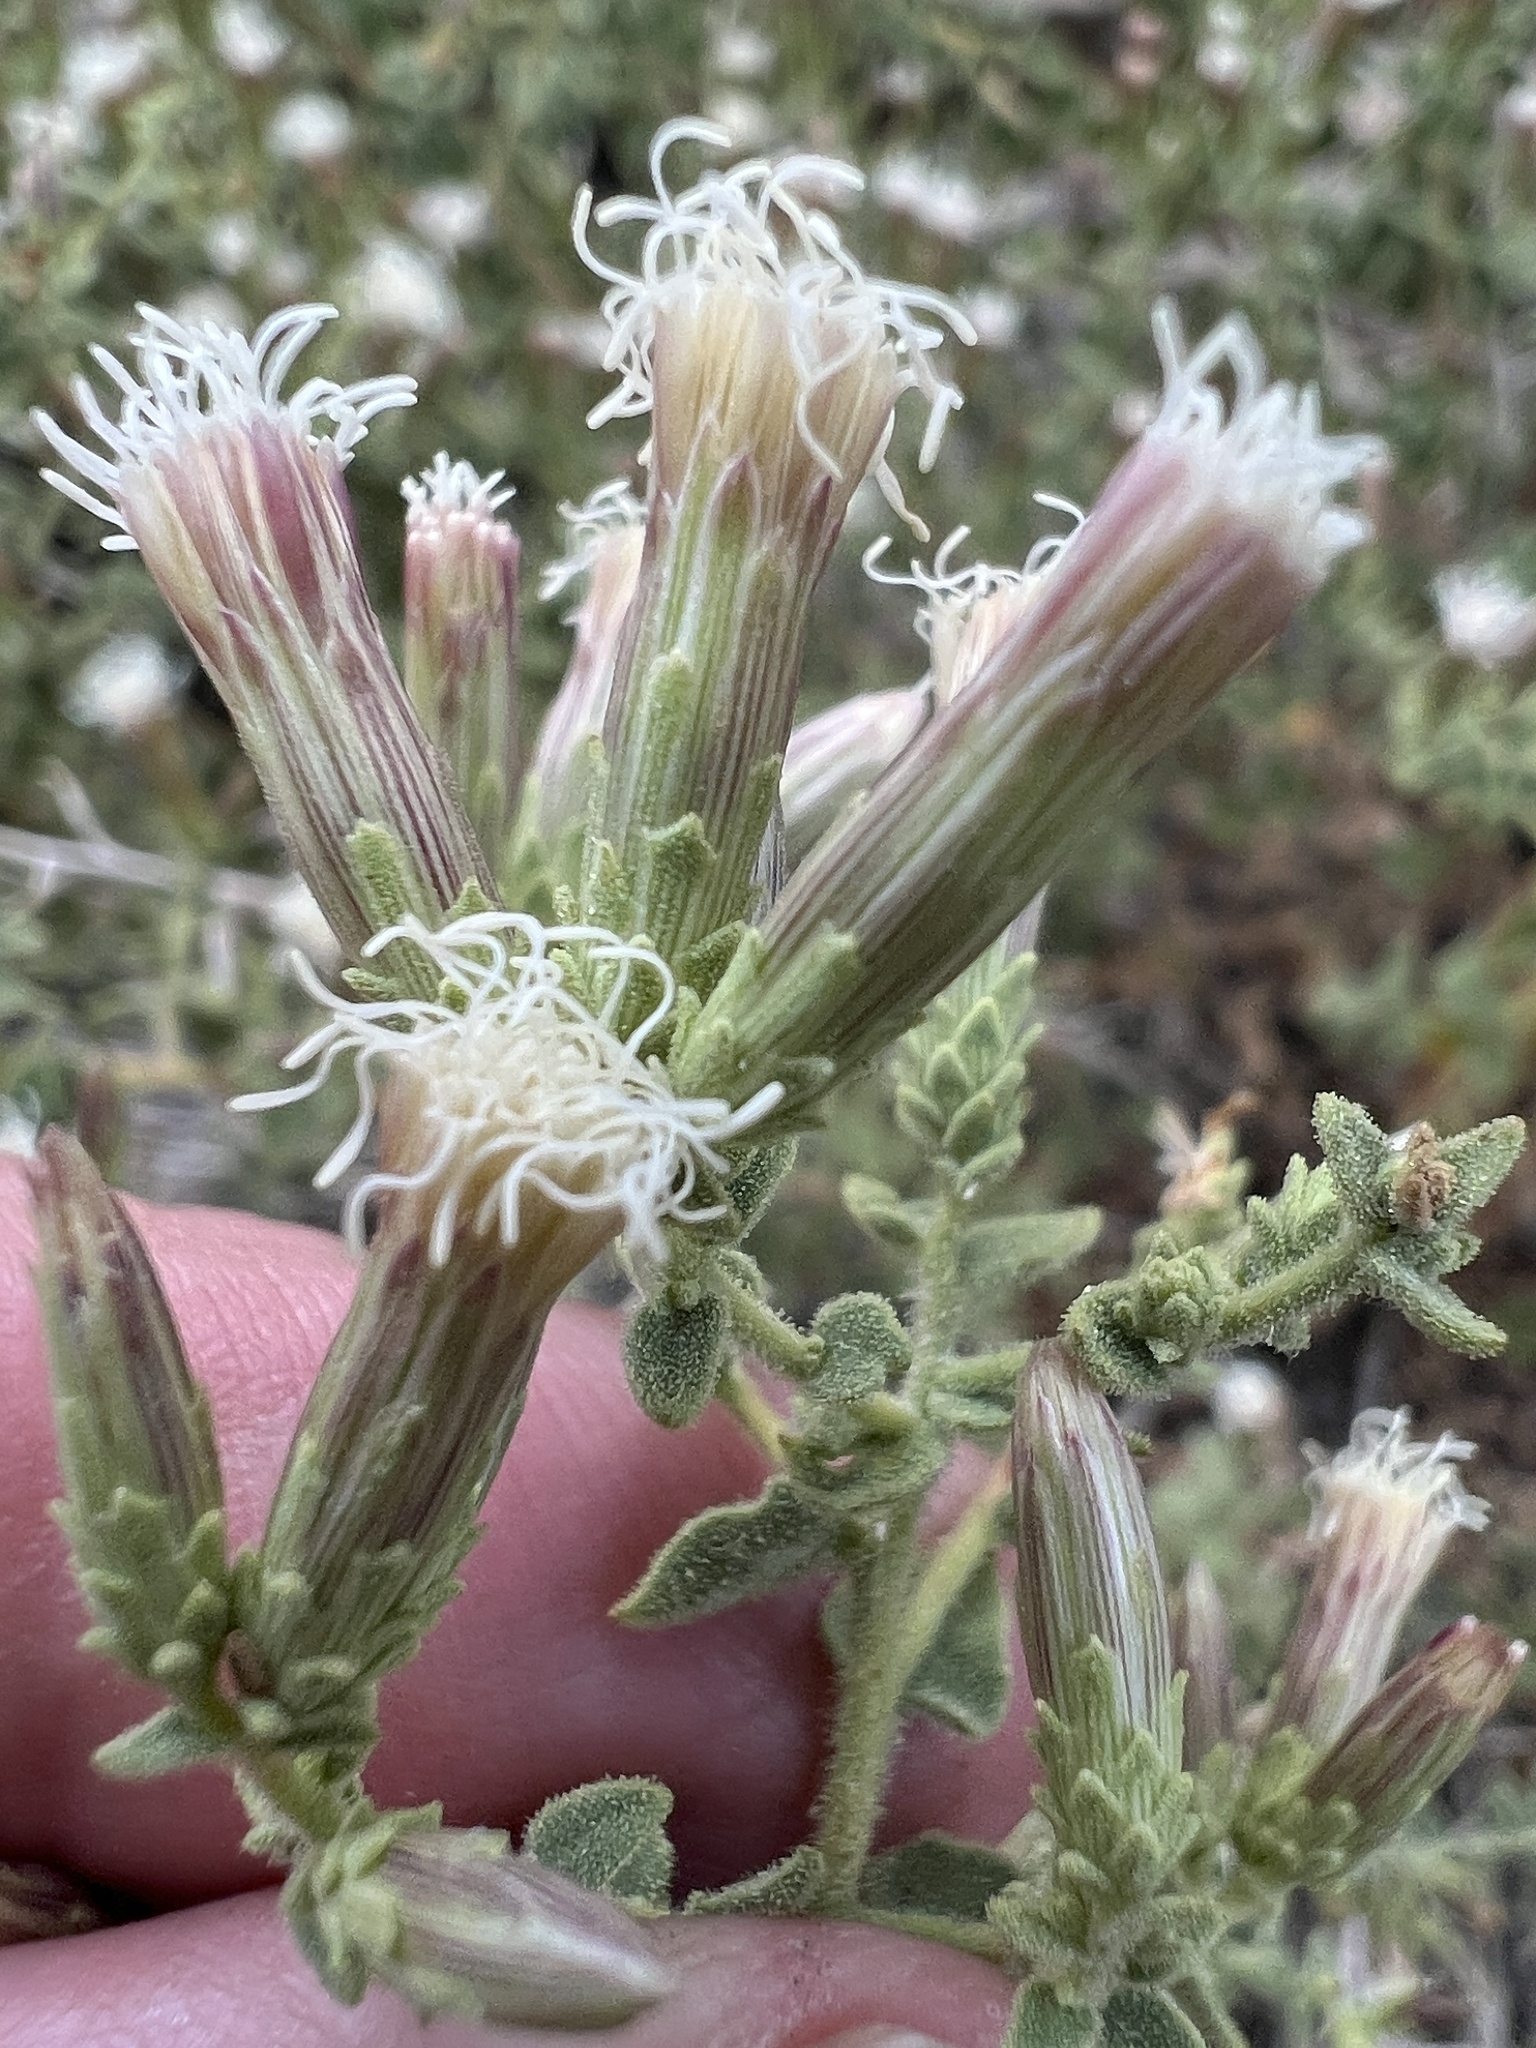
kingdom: Plantae
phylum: Tracheophyta
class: Magnoliopsida
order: Asterales
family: Asteraceae
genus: Brickellia
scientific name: Brickellia microphylla
